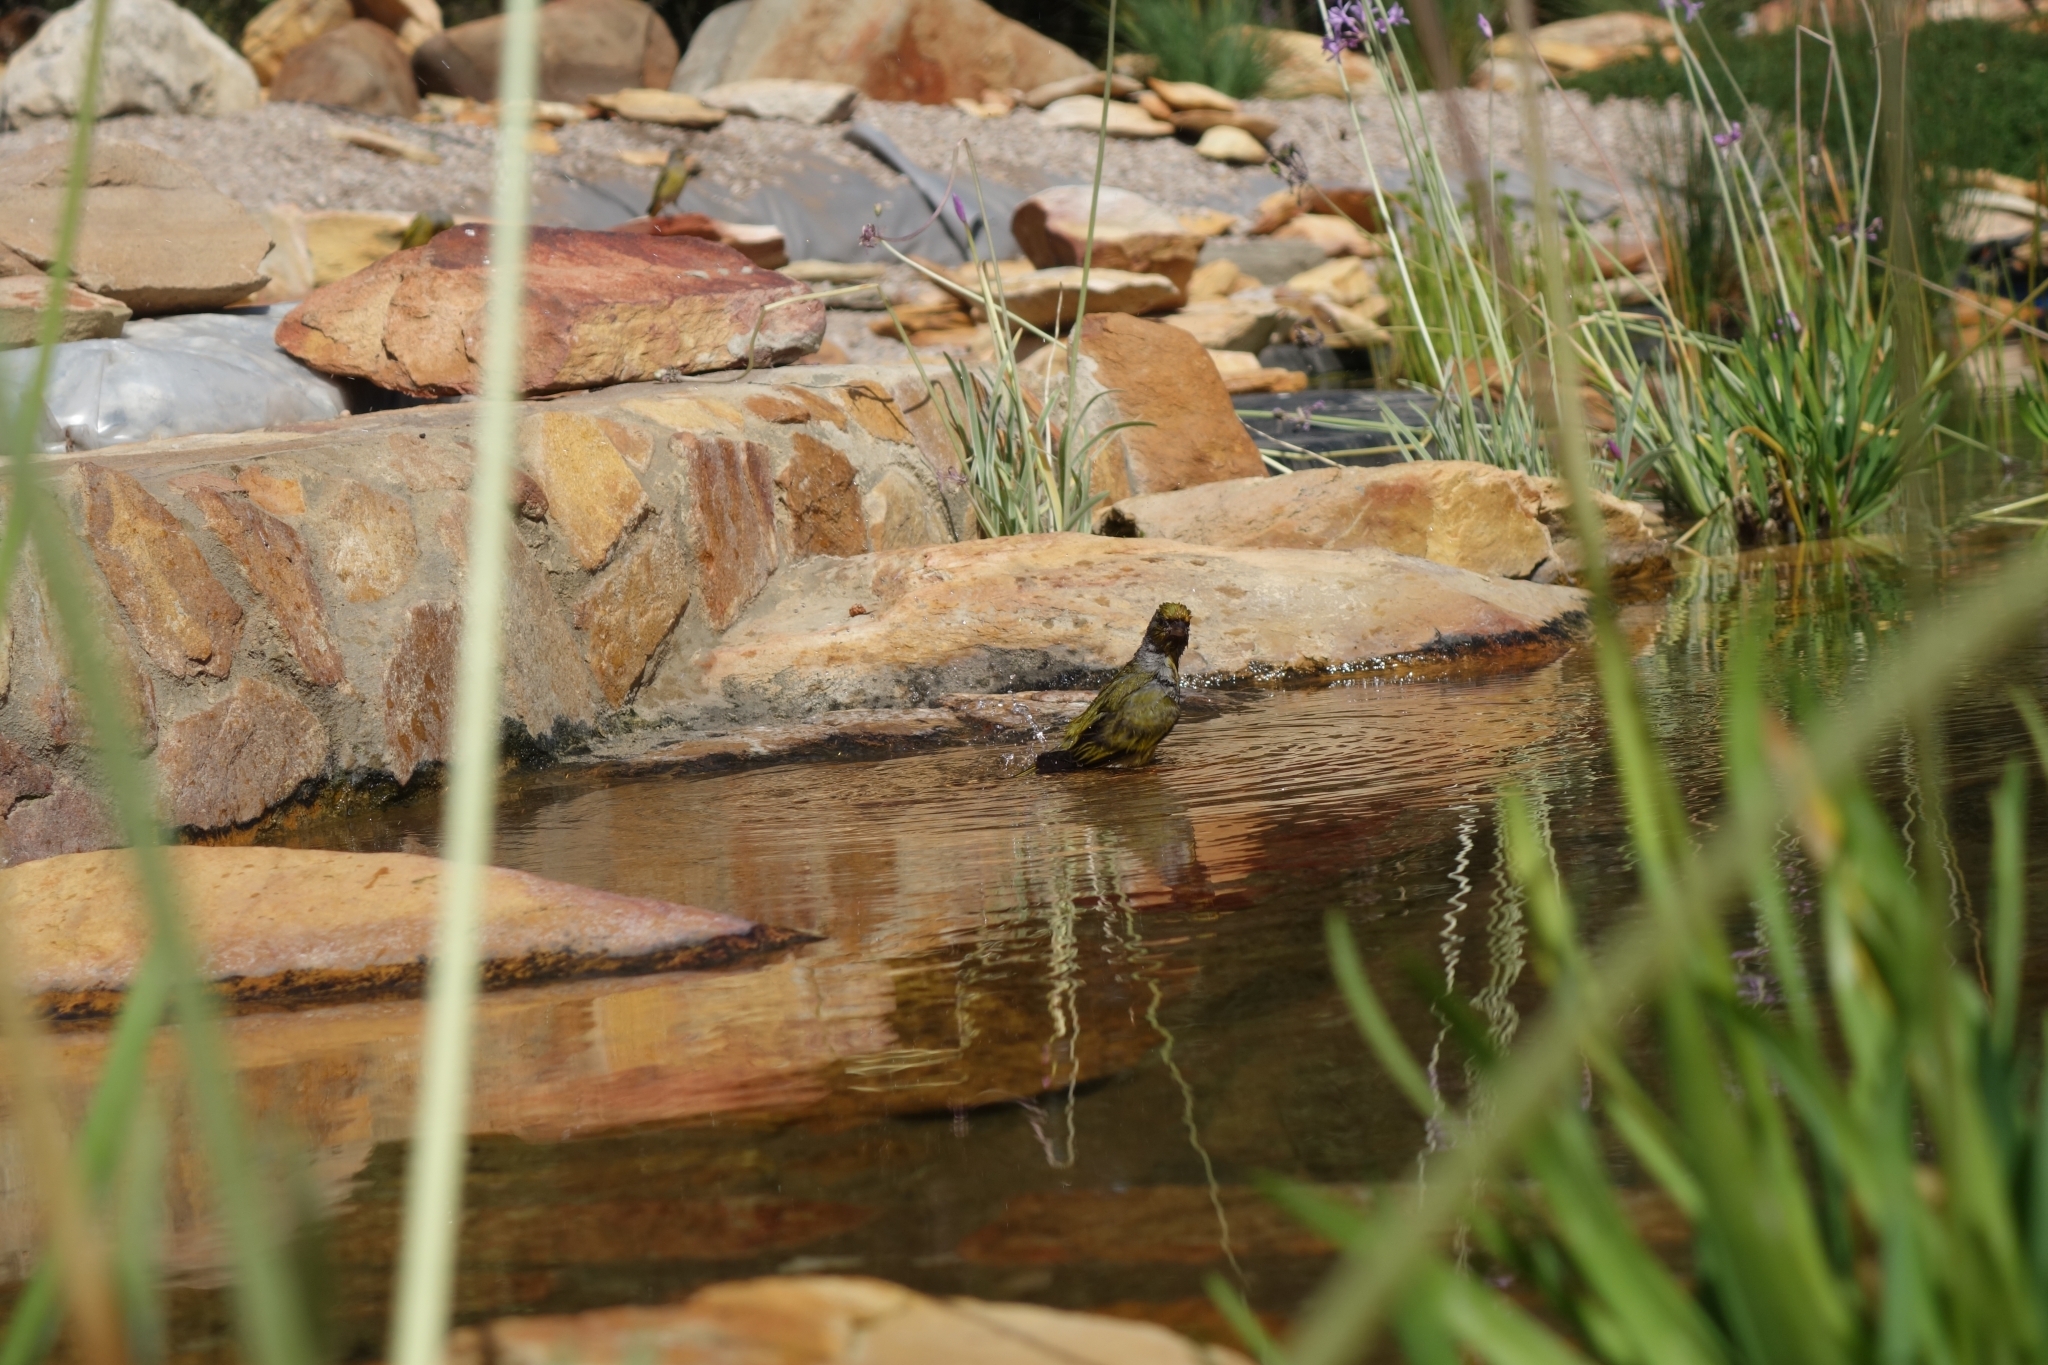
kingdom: Animalia
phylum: Chordata
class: Aves
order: Passeriformes
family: Fringillidae
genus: Serinus
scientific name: Serinus canicollis
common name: Cape canary
